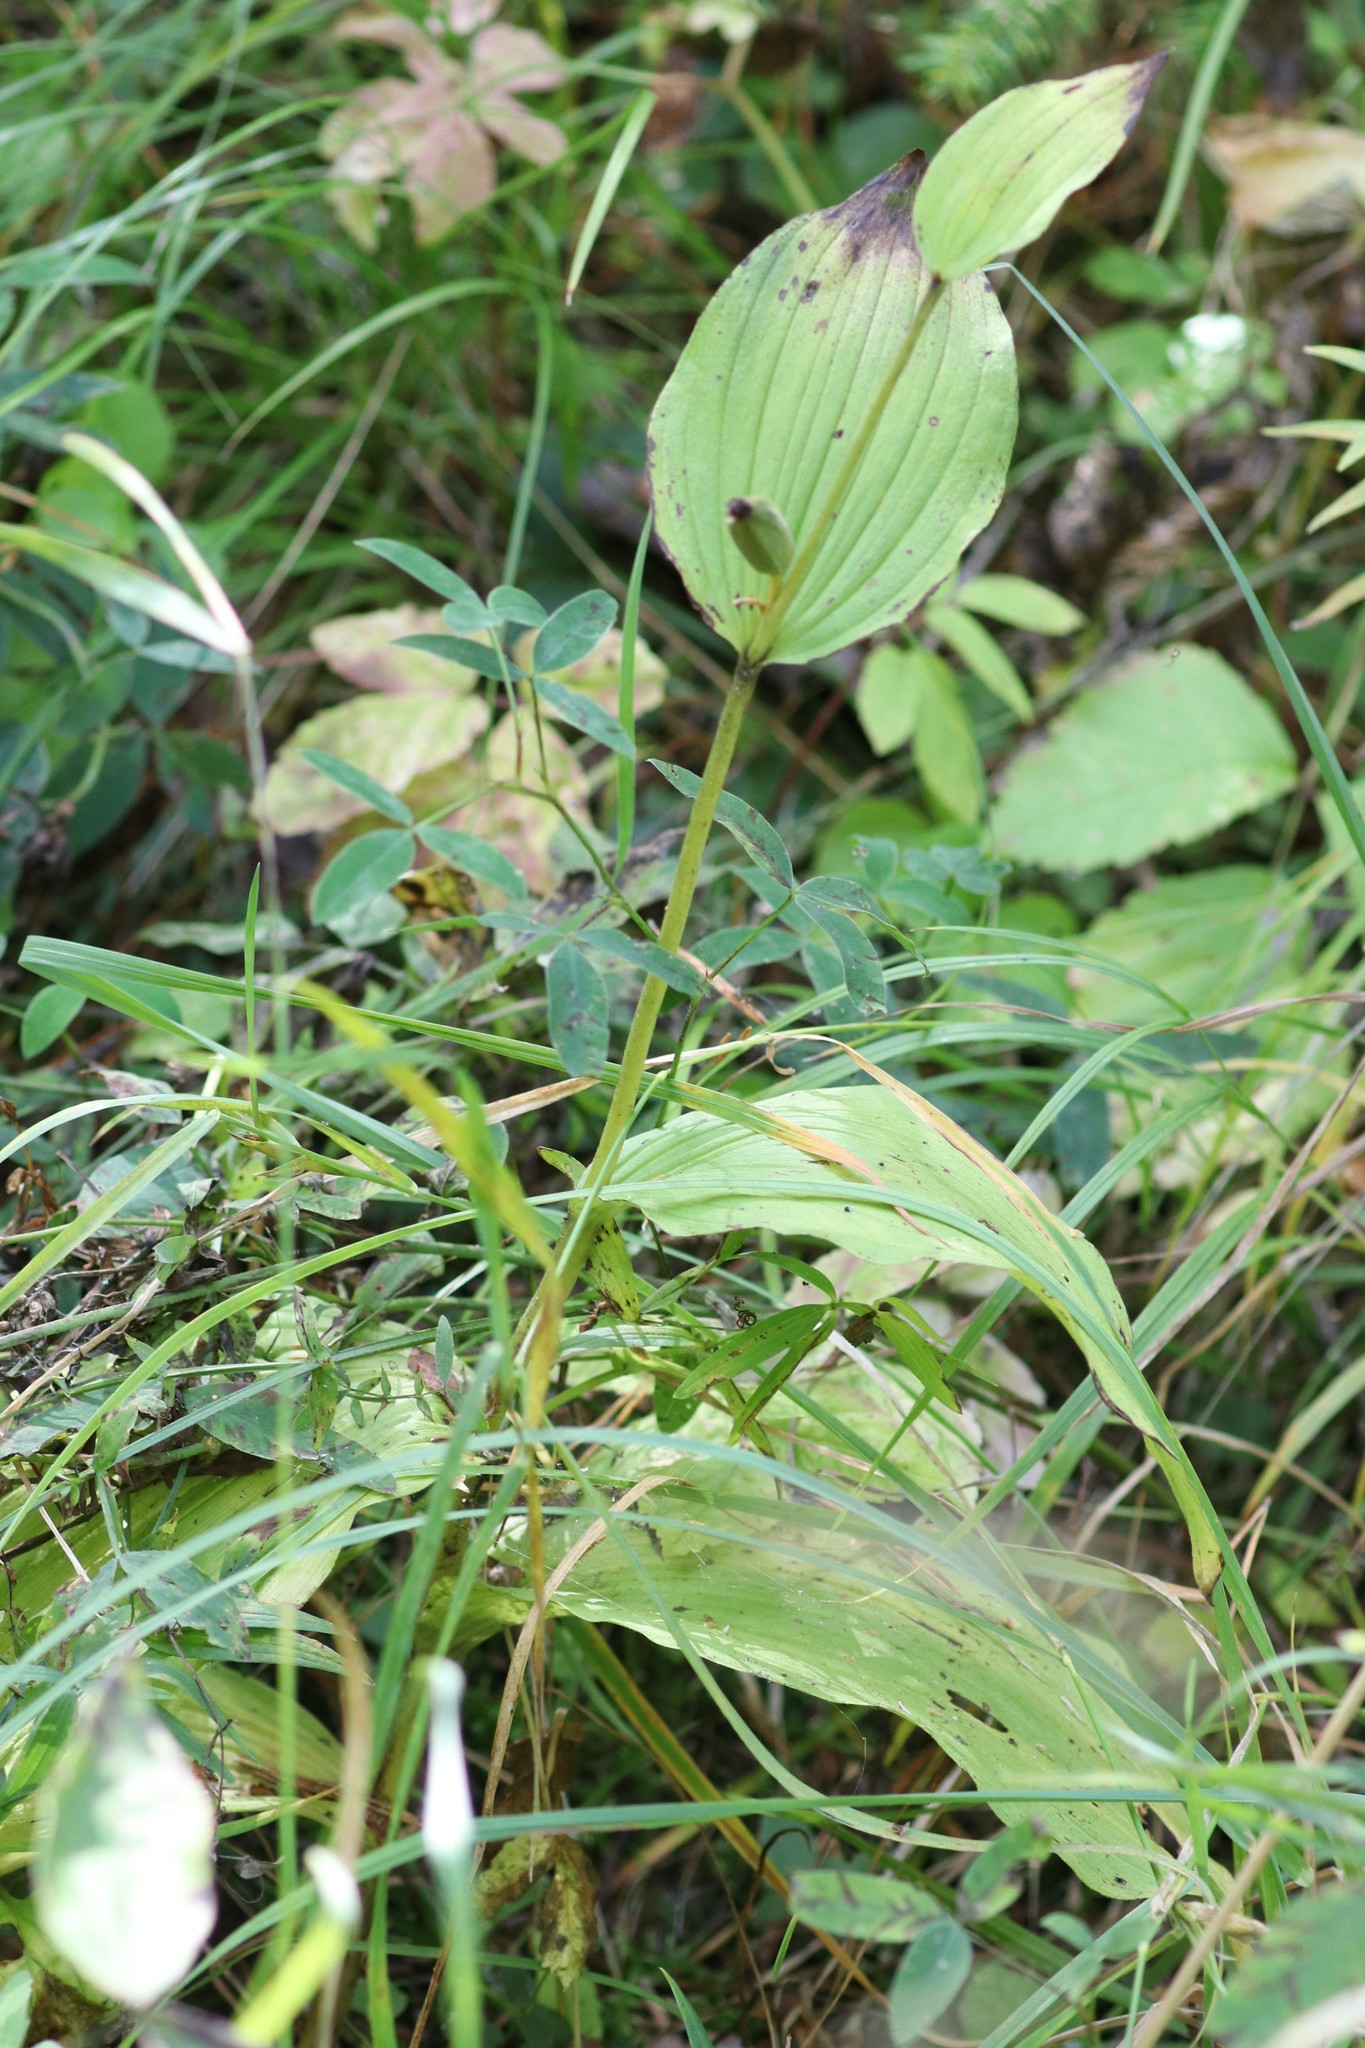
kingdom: Plantae
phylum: Tracheophyta
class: Liliopsida
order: Asparagales
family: Orchidaceae
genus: Cypripedium
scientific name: Cypripedium calceolus
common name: Lady's-slipper
